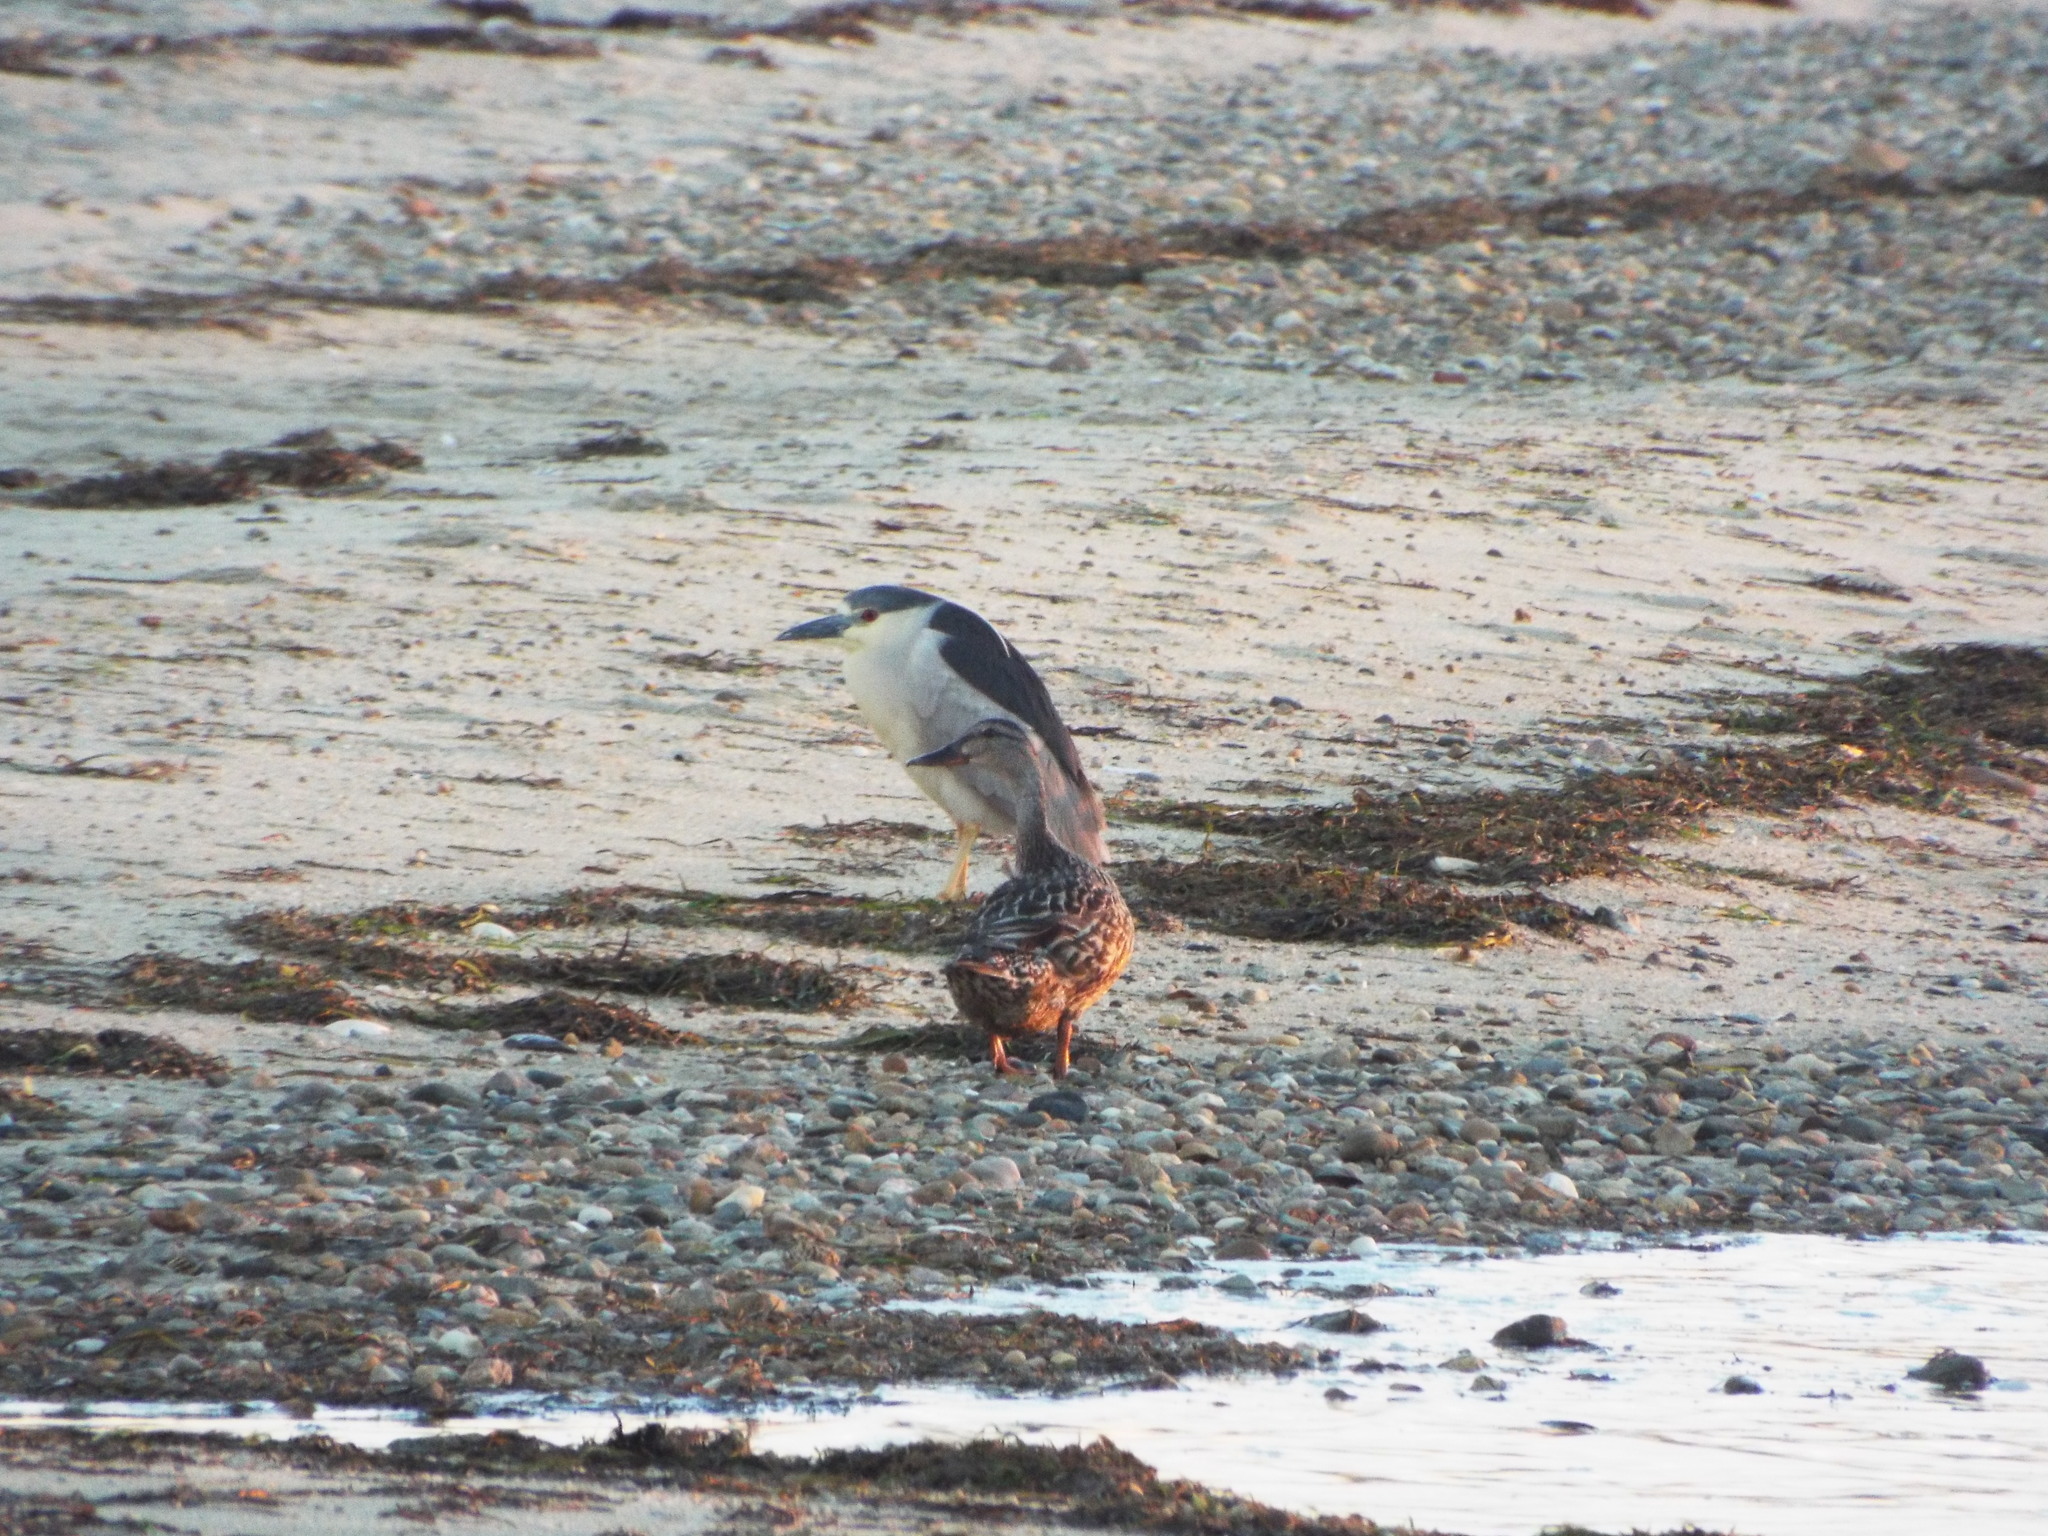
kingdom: Animalia
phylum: Chordata
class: Aves
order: Pelecaniformes
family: Ardeidae
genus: Nycticorax
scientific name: Nycticorax nycticorax
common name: Black-crowned night heron
